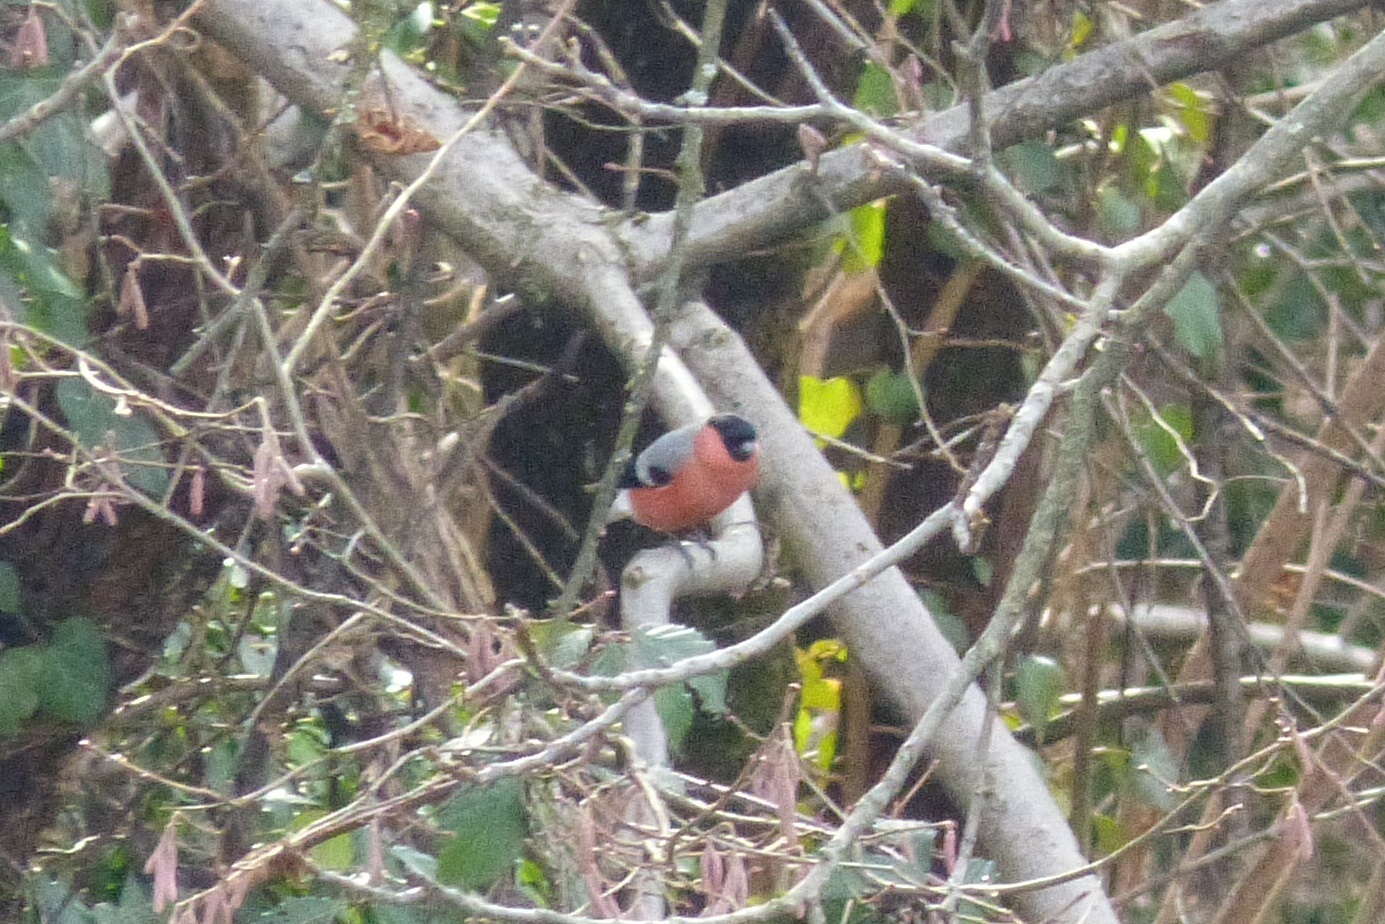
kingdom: Animalia
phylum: Chordata
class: Aves
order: Passeriformes
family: Fringillidae
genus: Pyrrhula
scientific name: Pyrrhula pyrrhula
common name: Eurasian bullfinch
